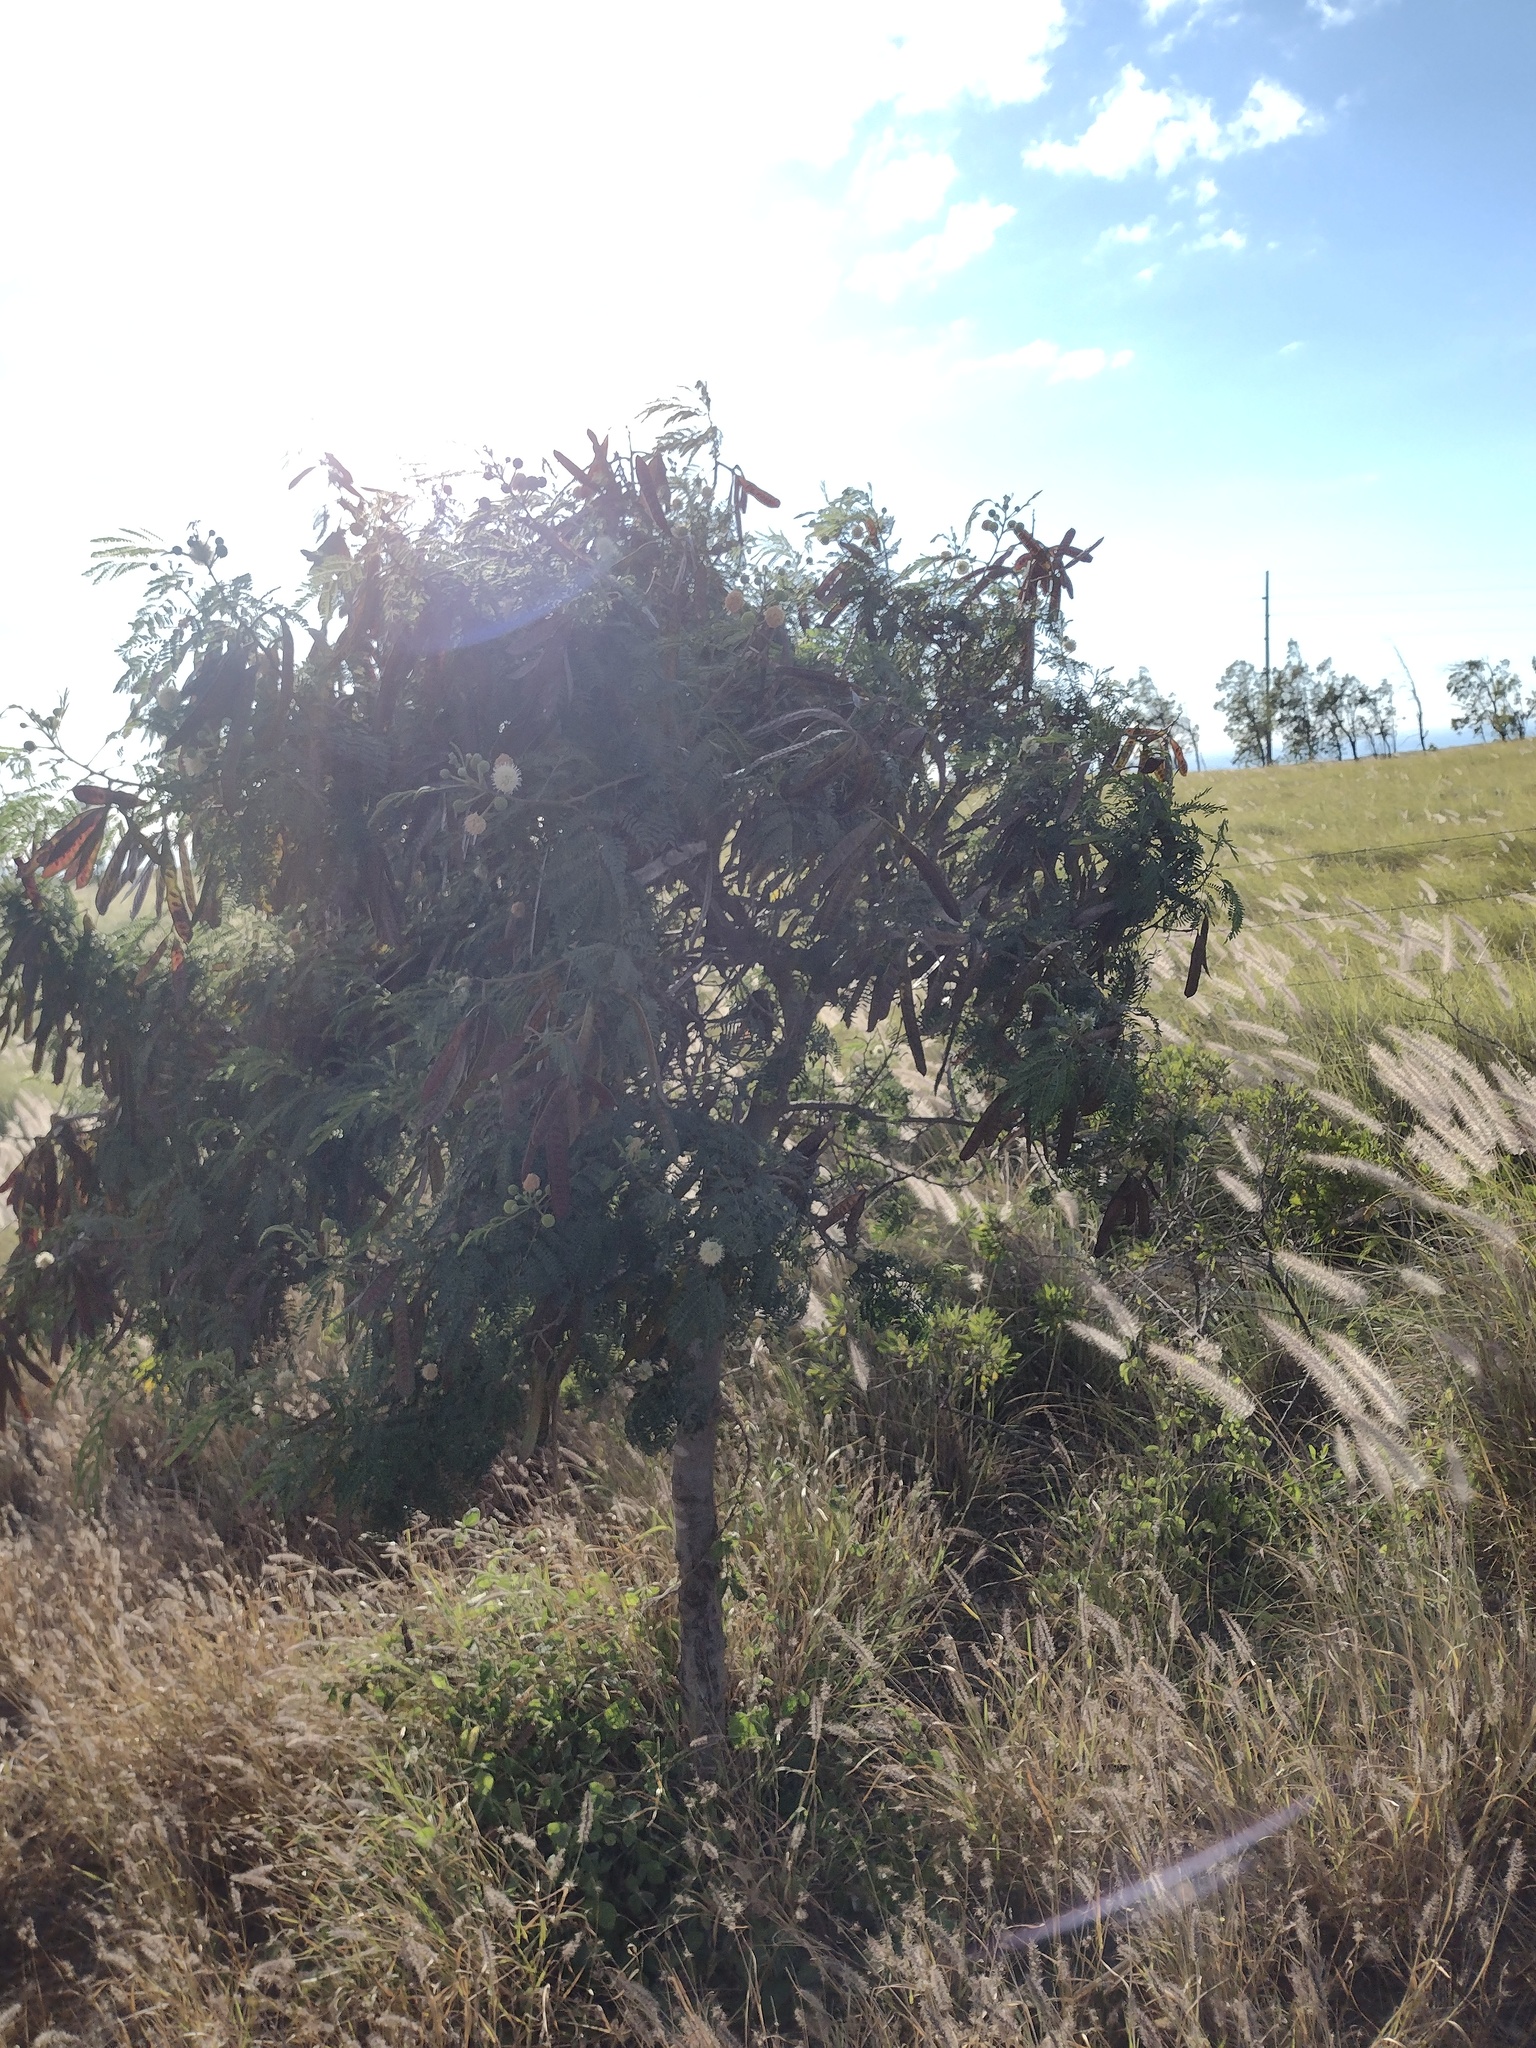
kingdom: Plantae
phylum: Tracheophyta
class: Magnoliopsida
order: Fabales
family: Fabaceae
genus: Leucaena
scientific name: Leucaena leucocephala
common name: White leadtree
